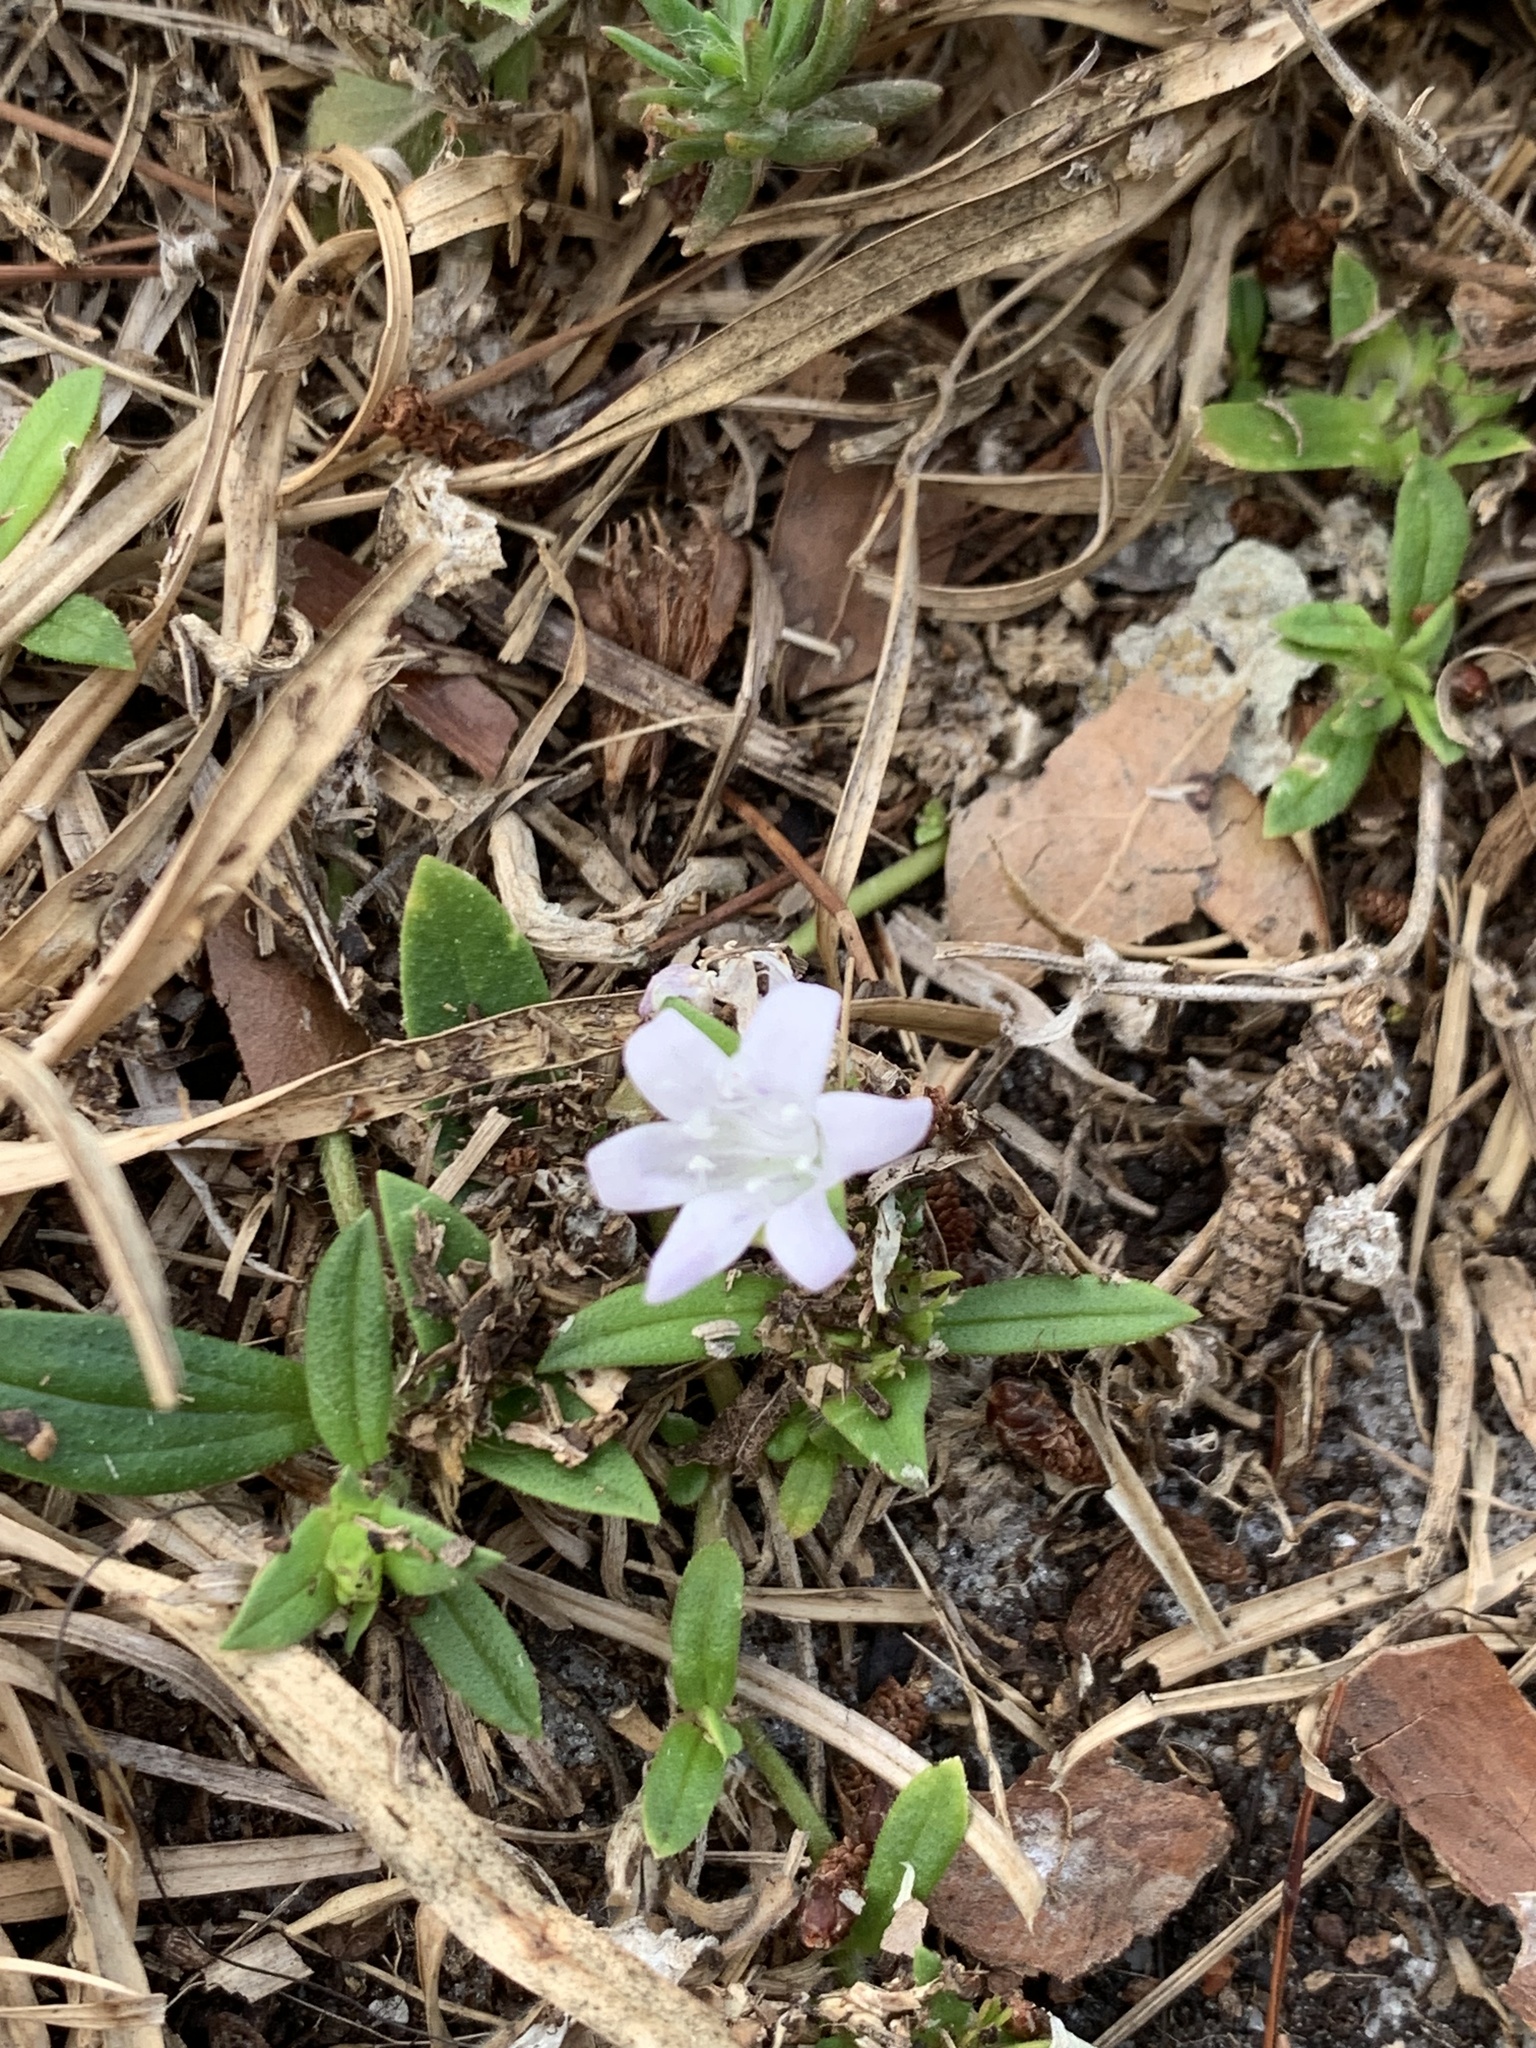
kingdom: Plantae
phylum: Tracheophyta
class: Magnoliopsida
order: Gentianales
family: Rubiaceae
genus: Richardia
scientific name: Richardia grandiflora
